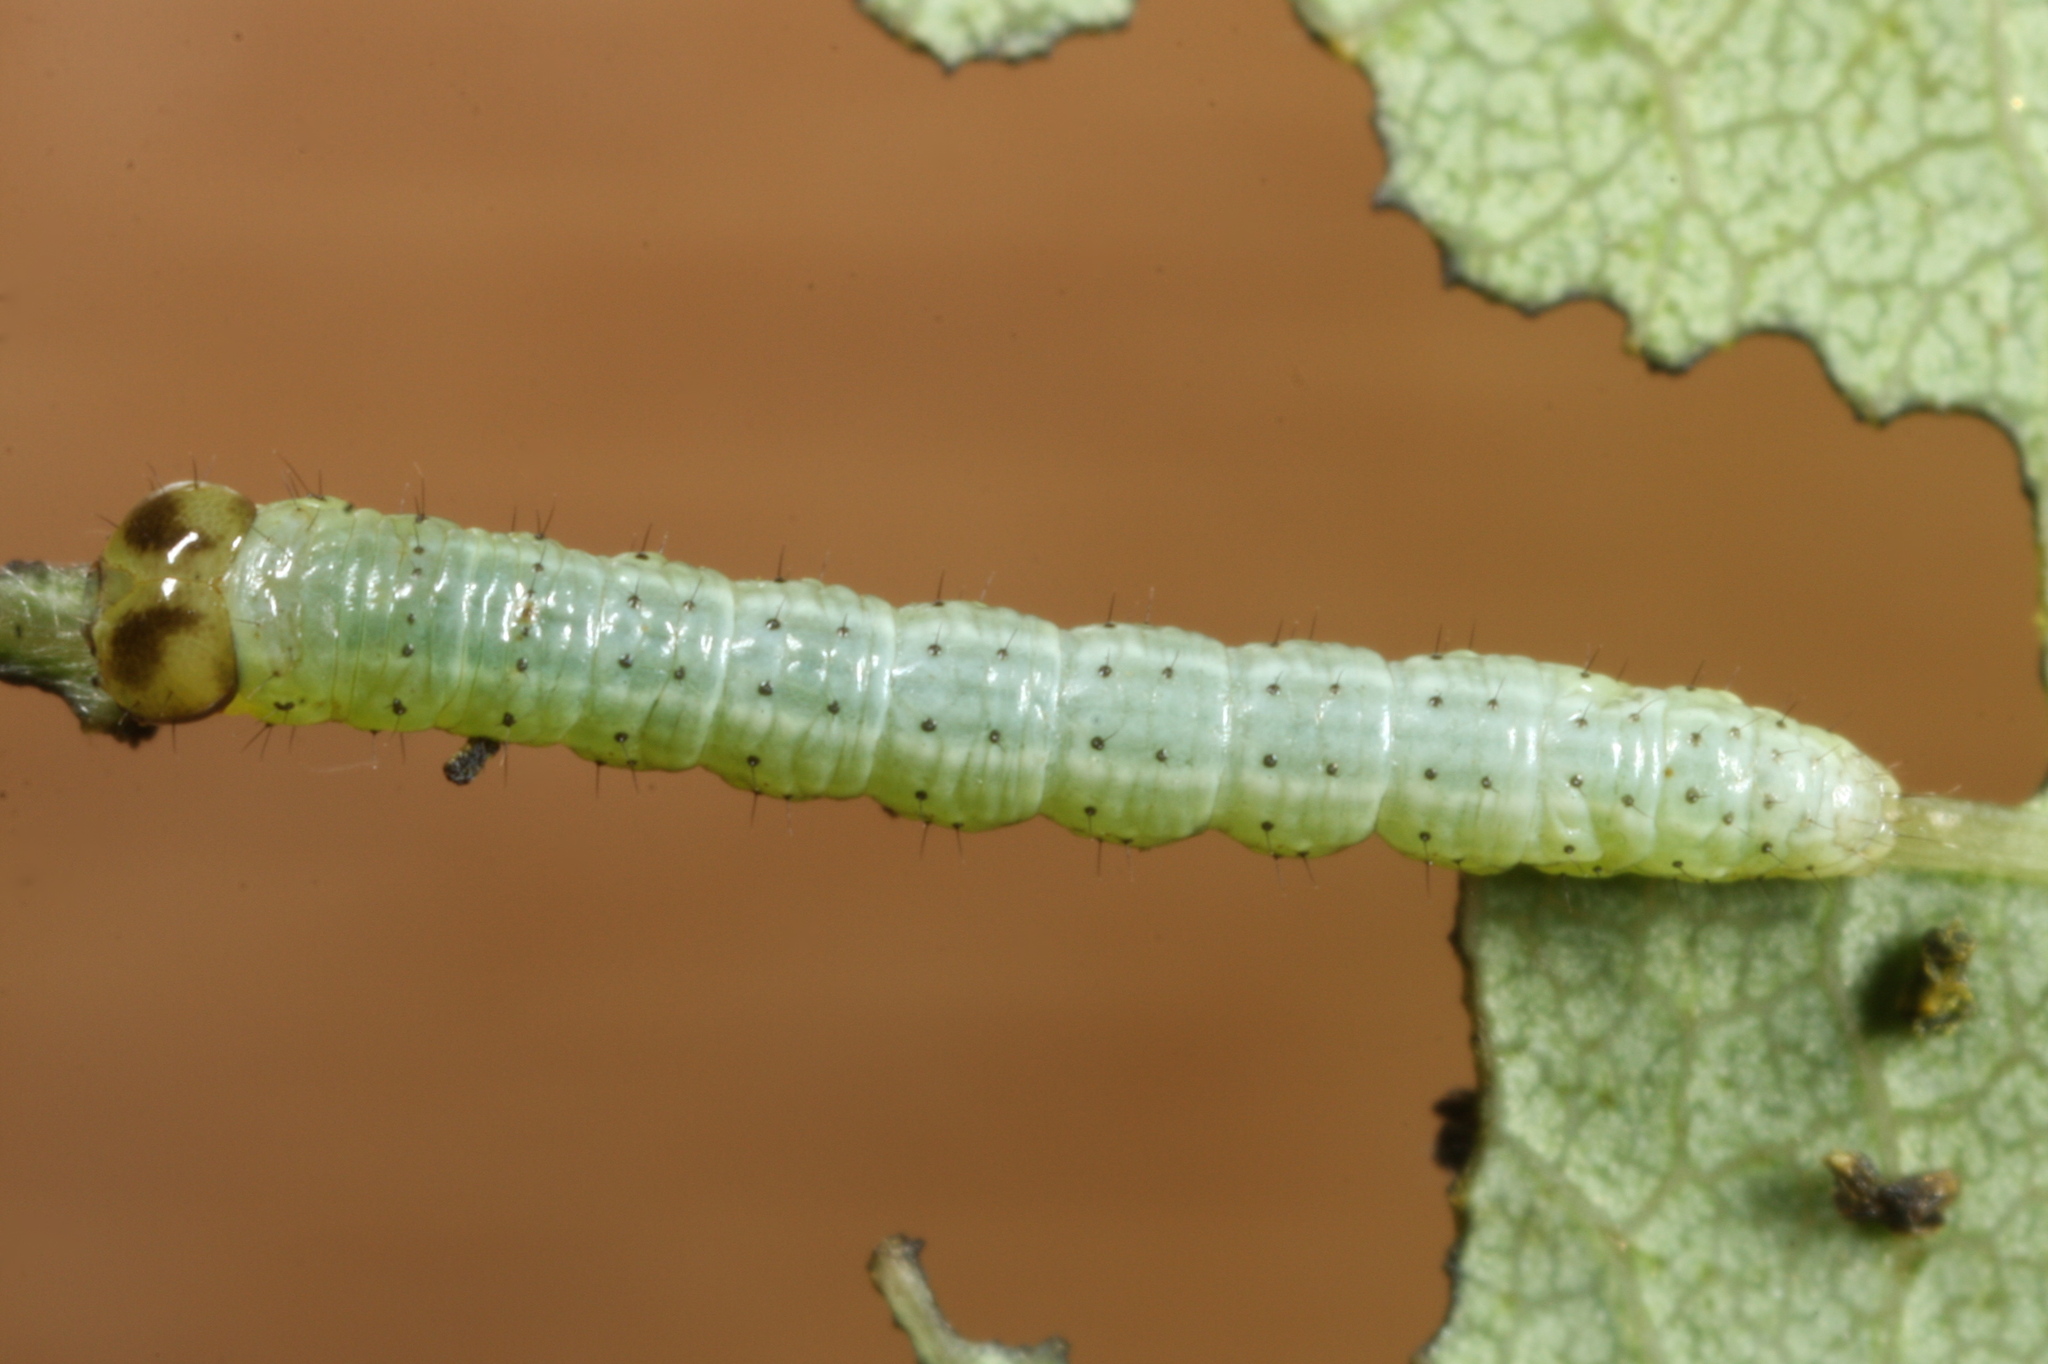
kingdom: Animalia
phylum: Arthropoda
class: Insecta
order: Lepidoptera
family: Notodontidae
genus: Pterostoma
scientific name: Pterostoma palpina
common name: Pale prominent
